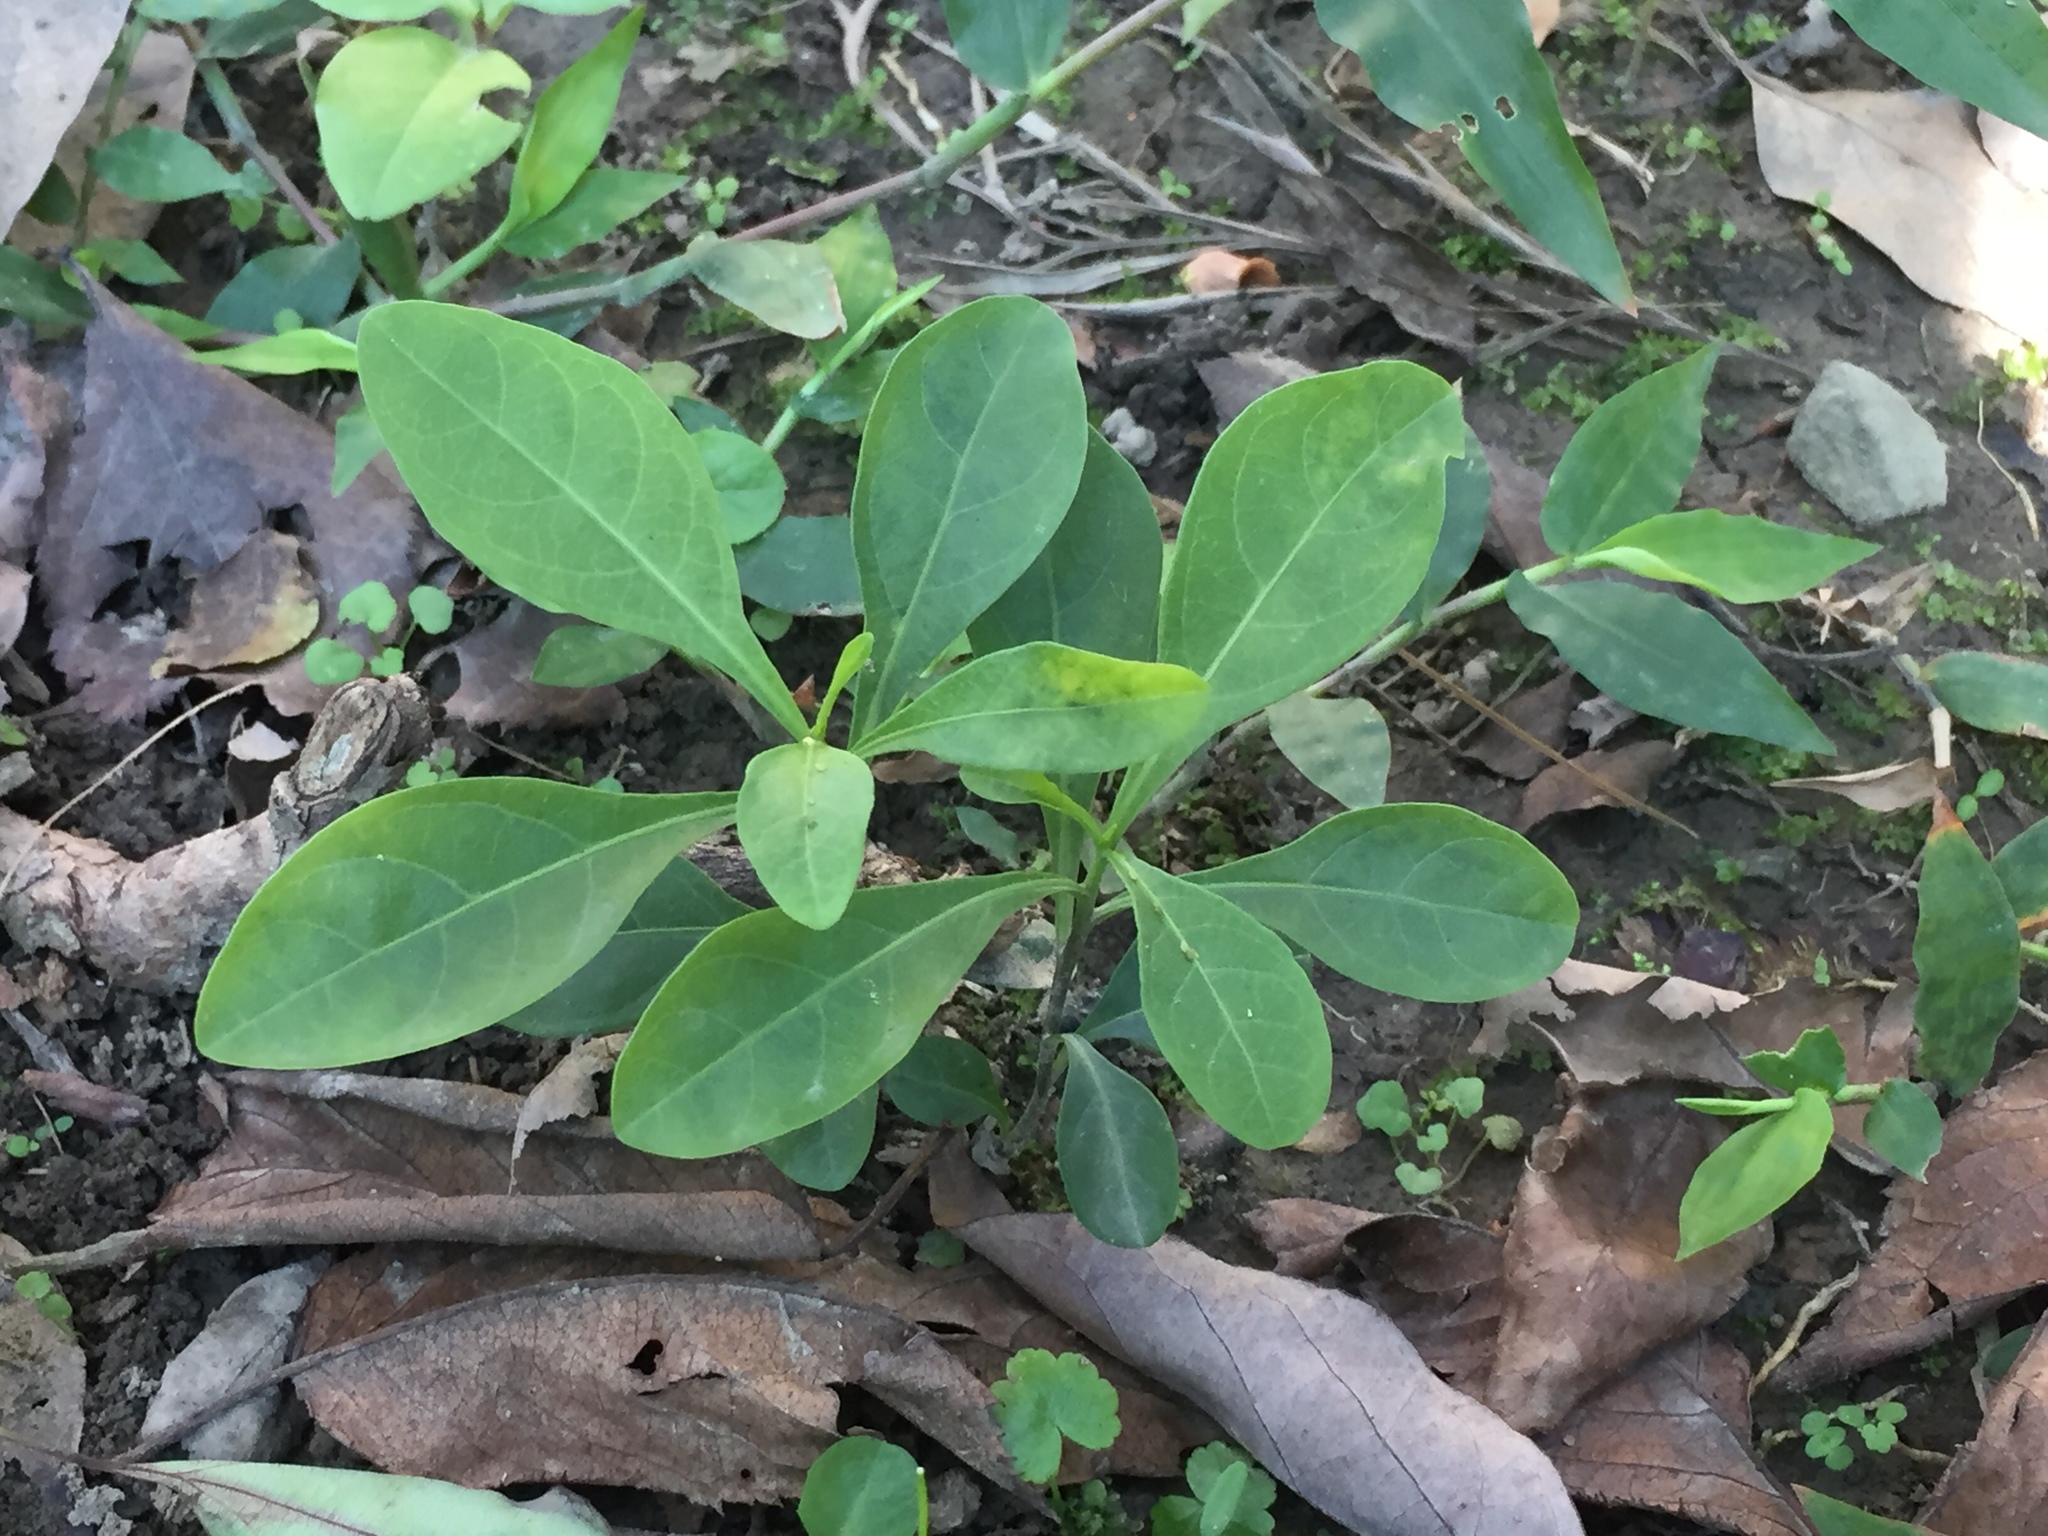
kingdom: Plantae
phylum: Tracheophyta
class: Magnoliopsida
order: Solanales
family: Solanaceae
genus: Solanum
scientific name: Solanum diphyllum
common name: Twoleaf nightshade
